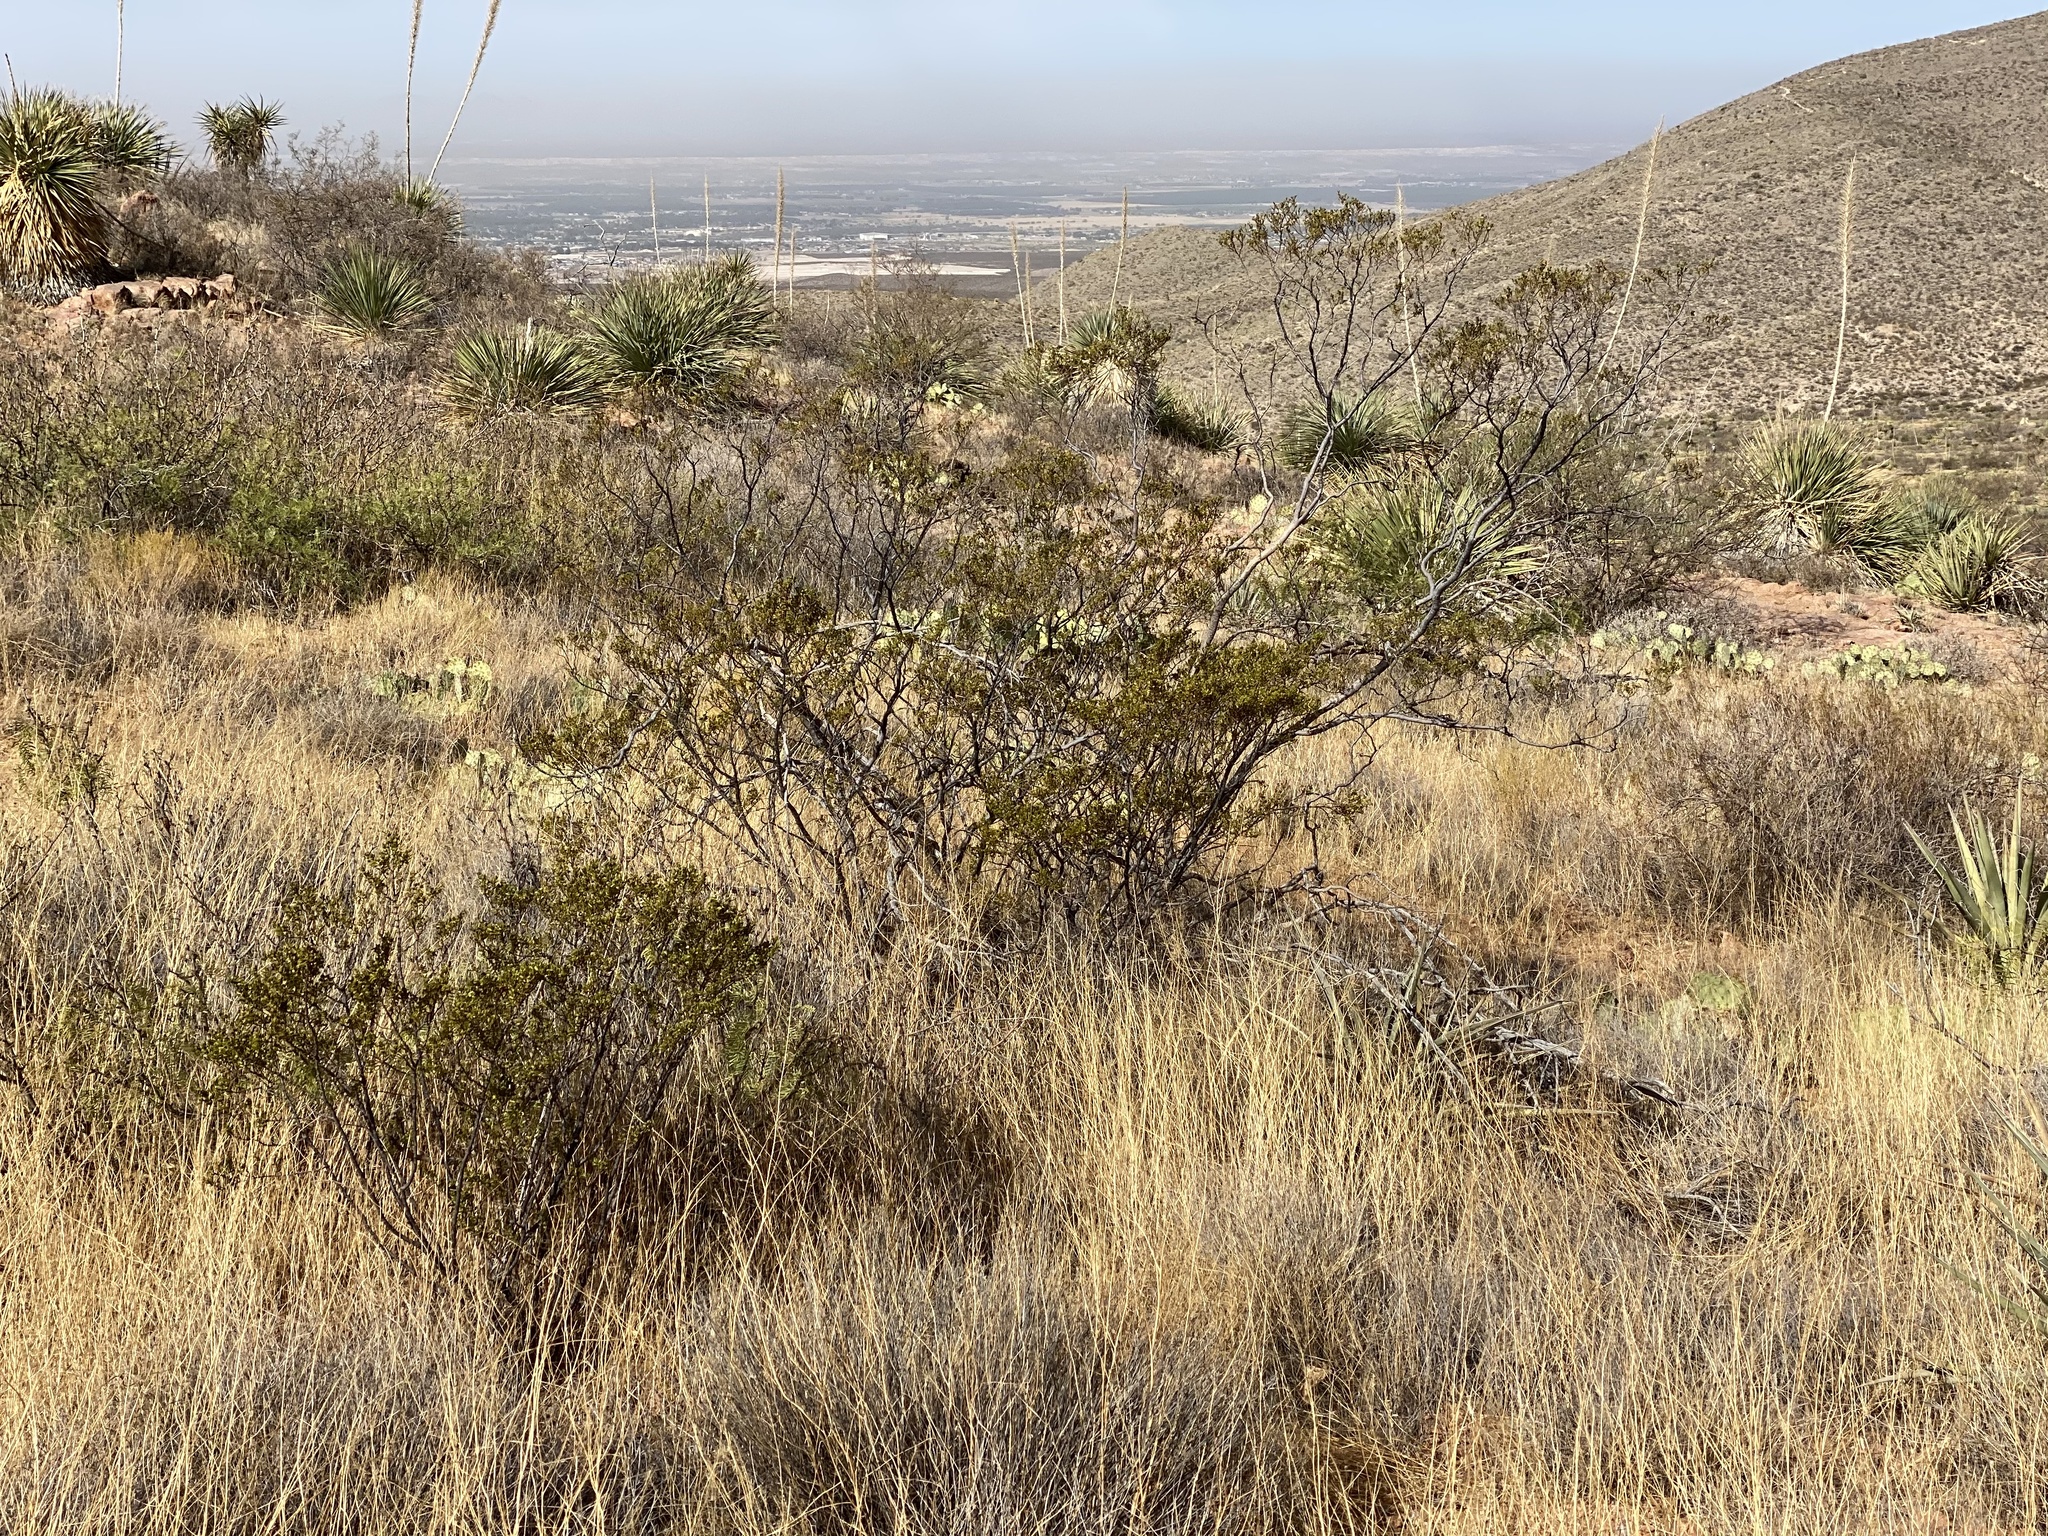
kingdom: Plantae
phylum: Tracheophyta
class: Magnoliopsida
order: Zygophyllales
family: Zygophyllaceae
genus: Larrea
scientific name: Larrea tridentata
